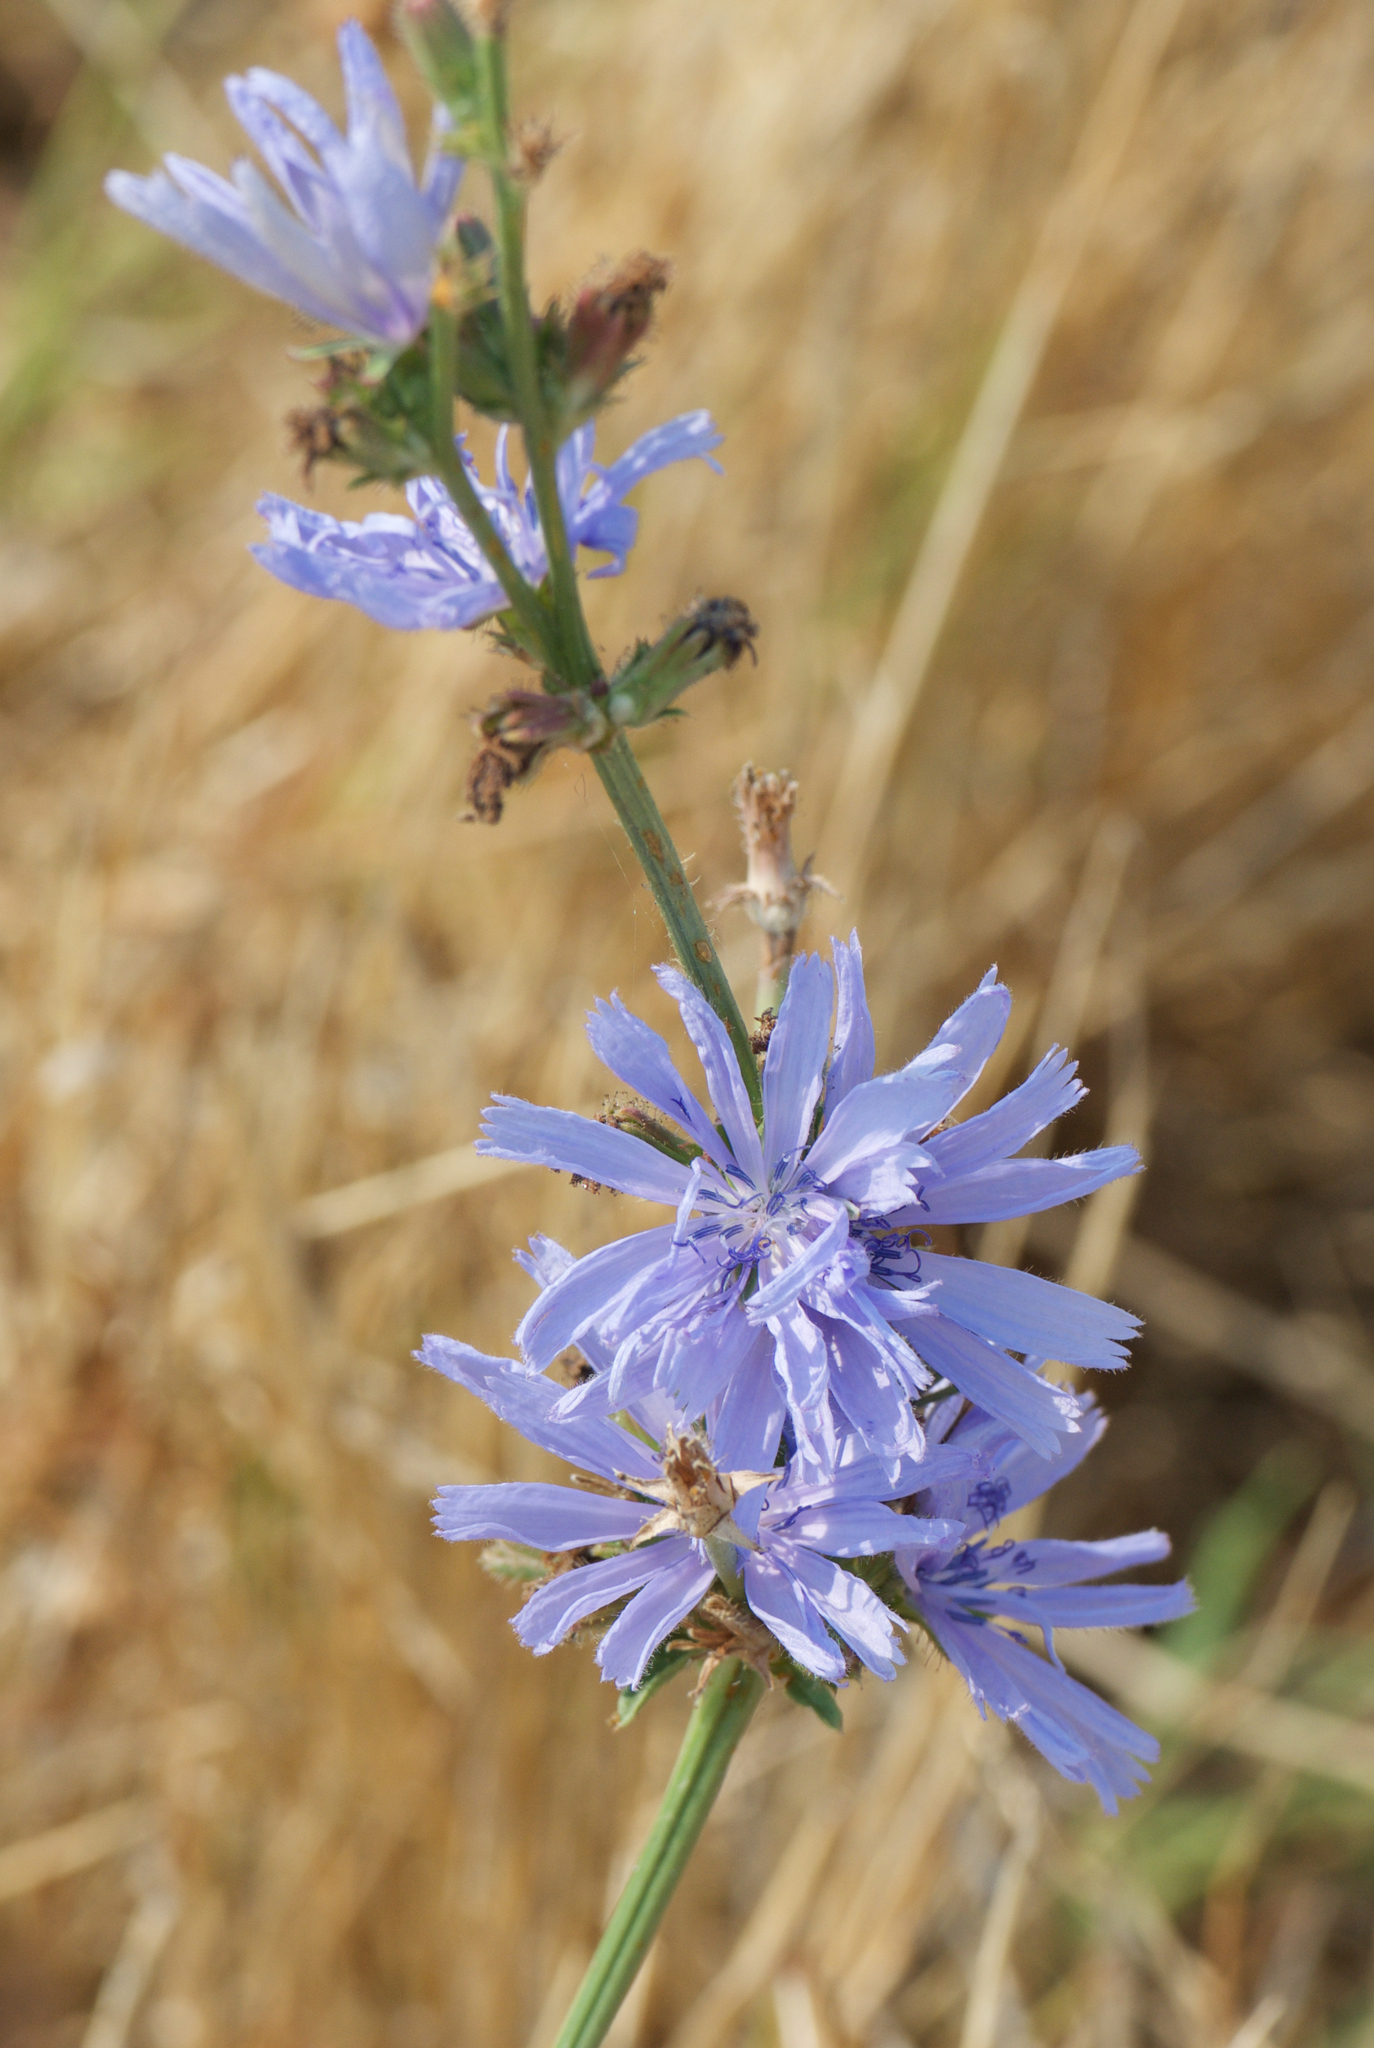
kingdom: Plantae
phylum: Tracheophyta
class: Magnoliopsida
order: Asterales
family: Asteraceae
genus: Cichorium
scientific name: Cichorium intybus
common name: Chicory
